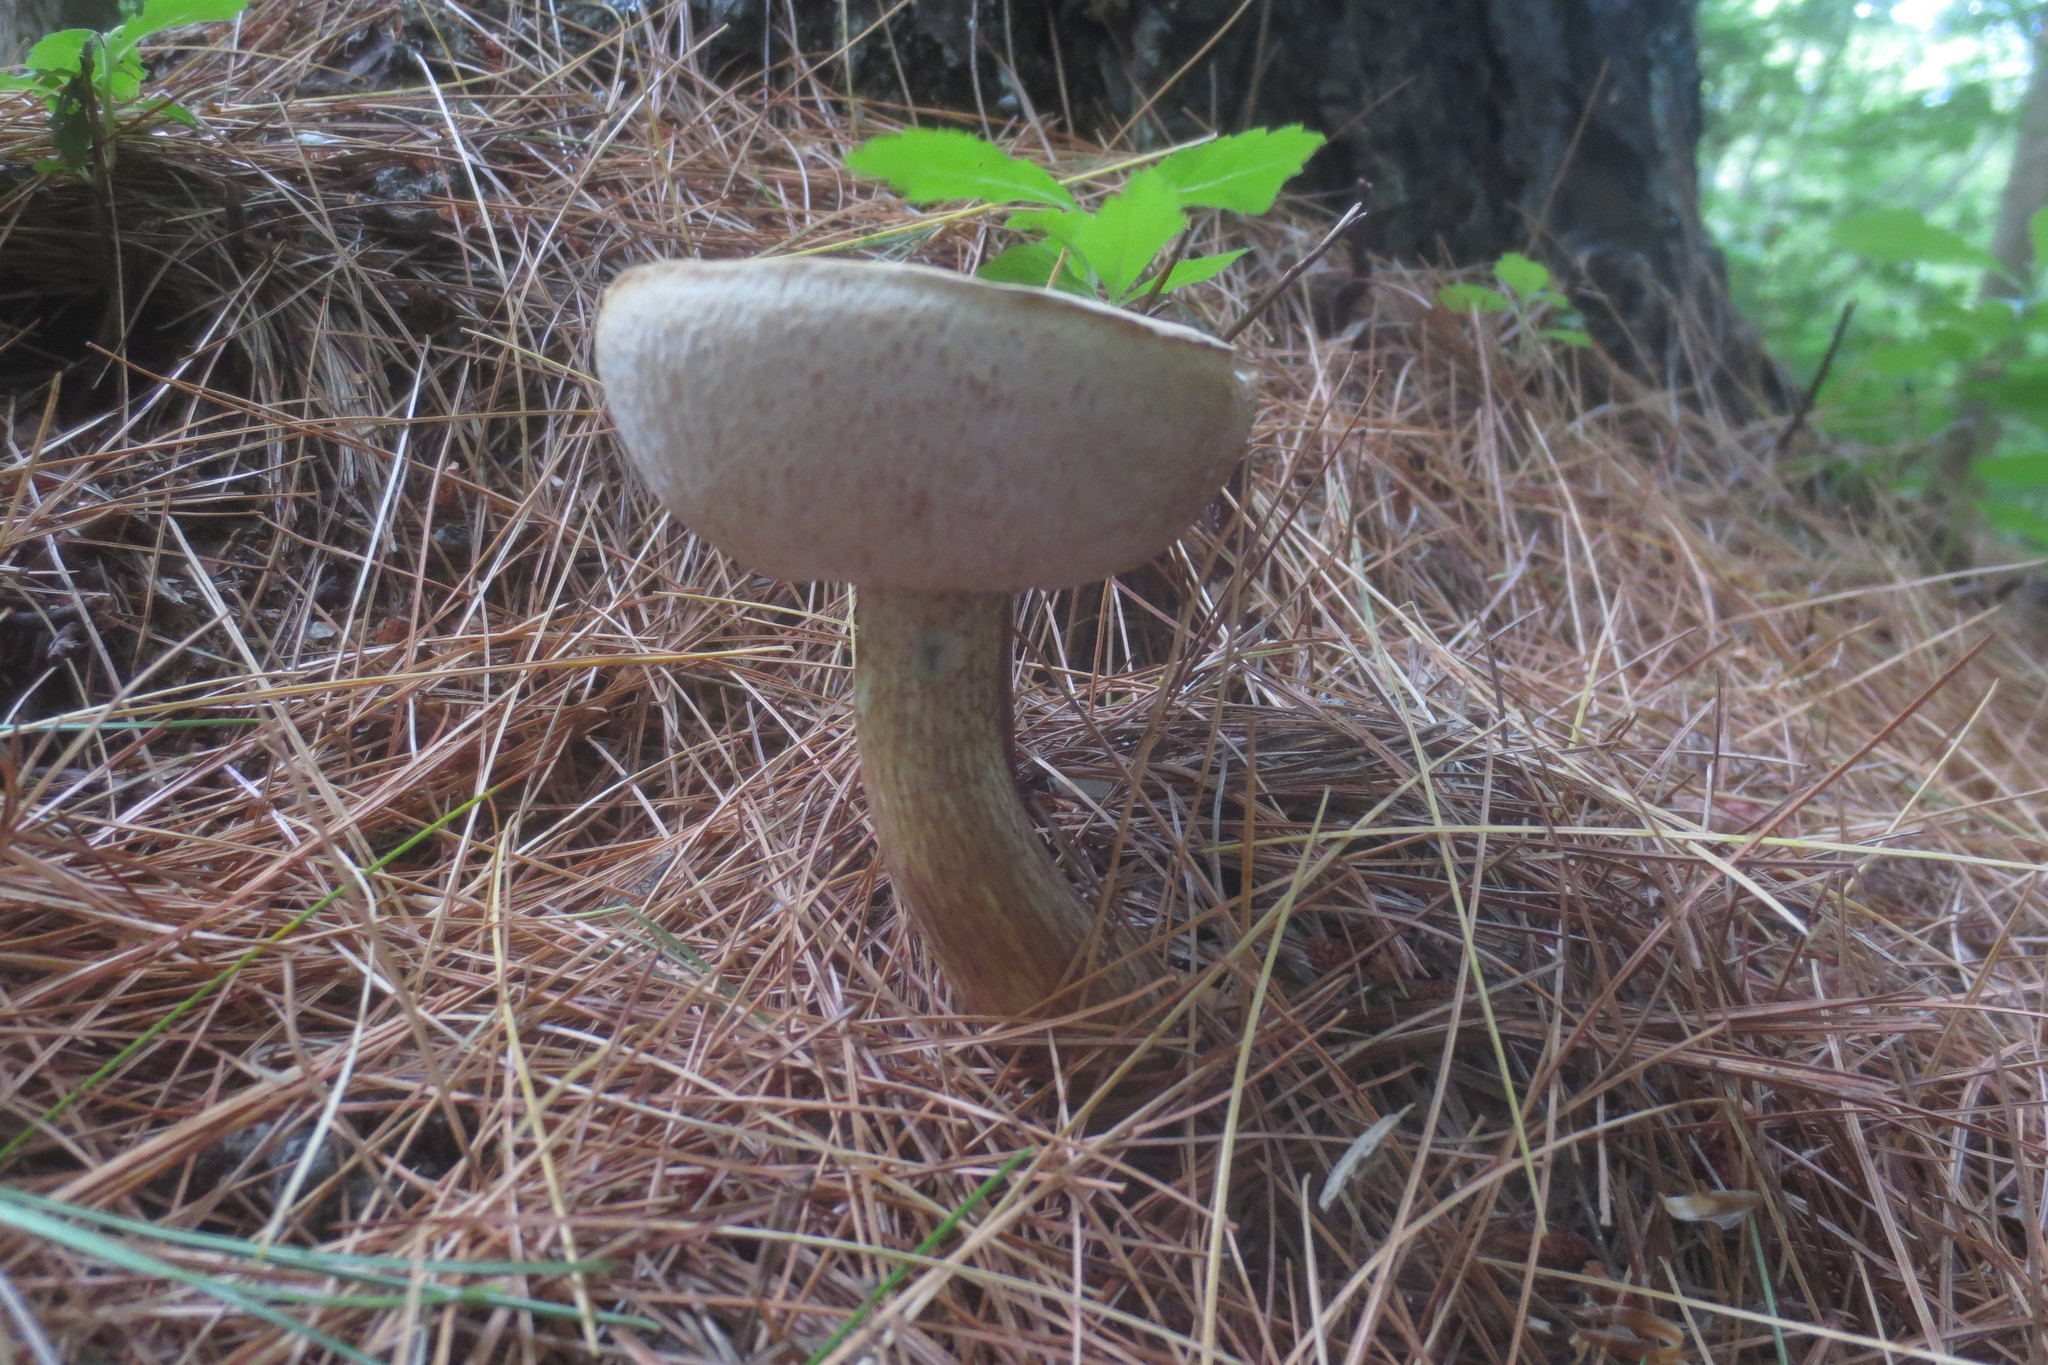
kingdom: Fungi
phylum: Basidiomycota
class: Agaricomycetes
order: Boletales
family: Boletaceae
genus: Tylopilus
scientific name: Tylopilus felleus
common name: Bitter bolete
